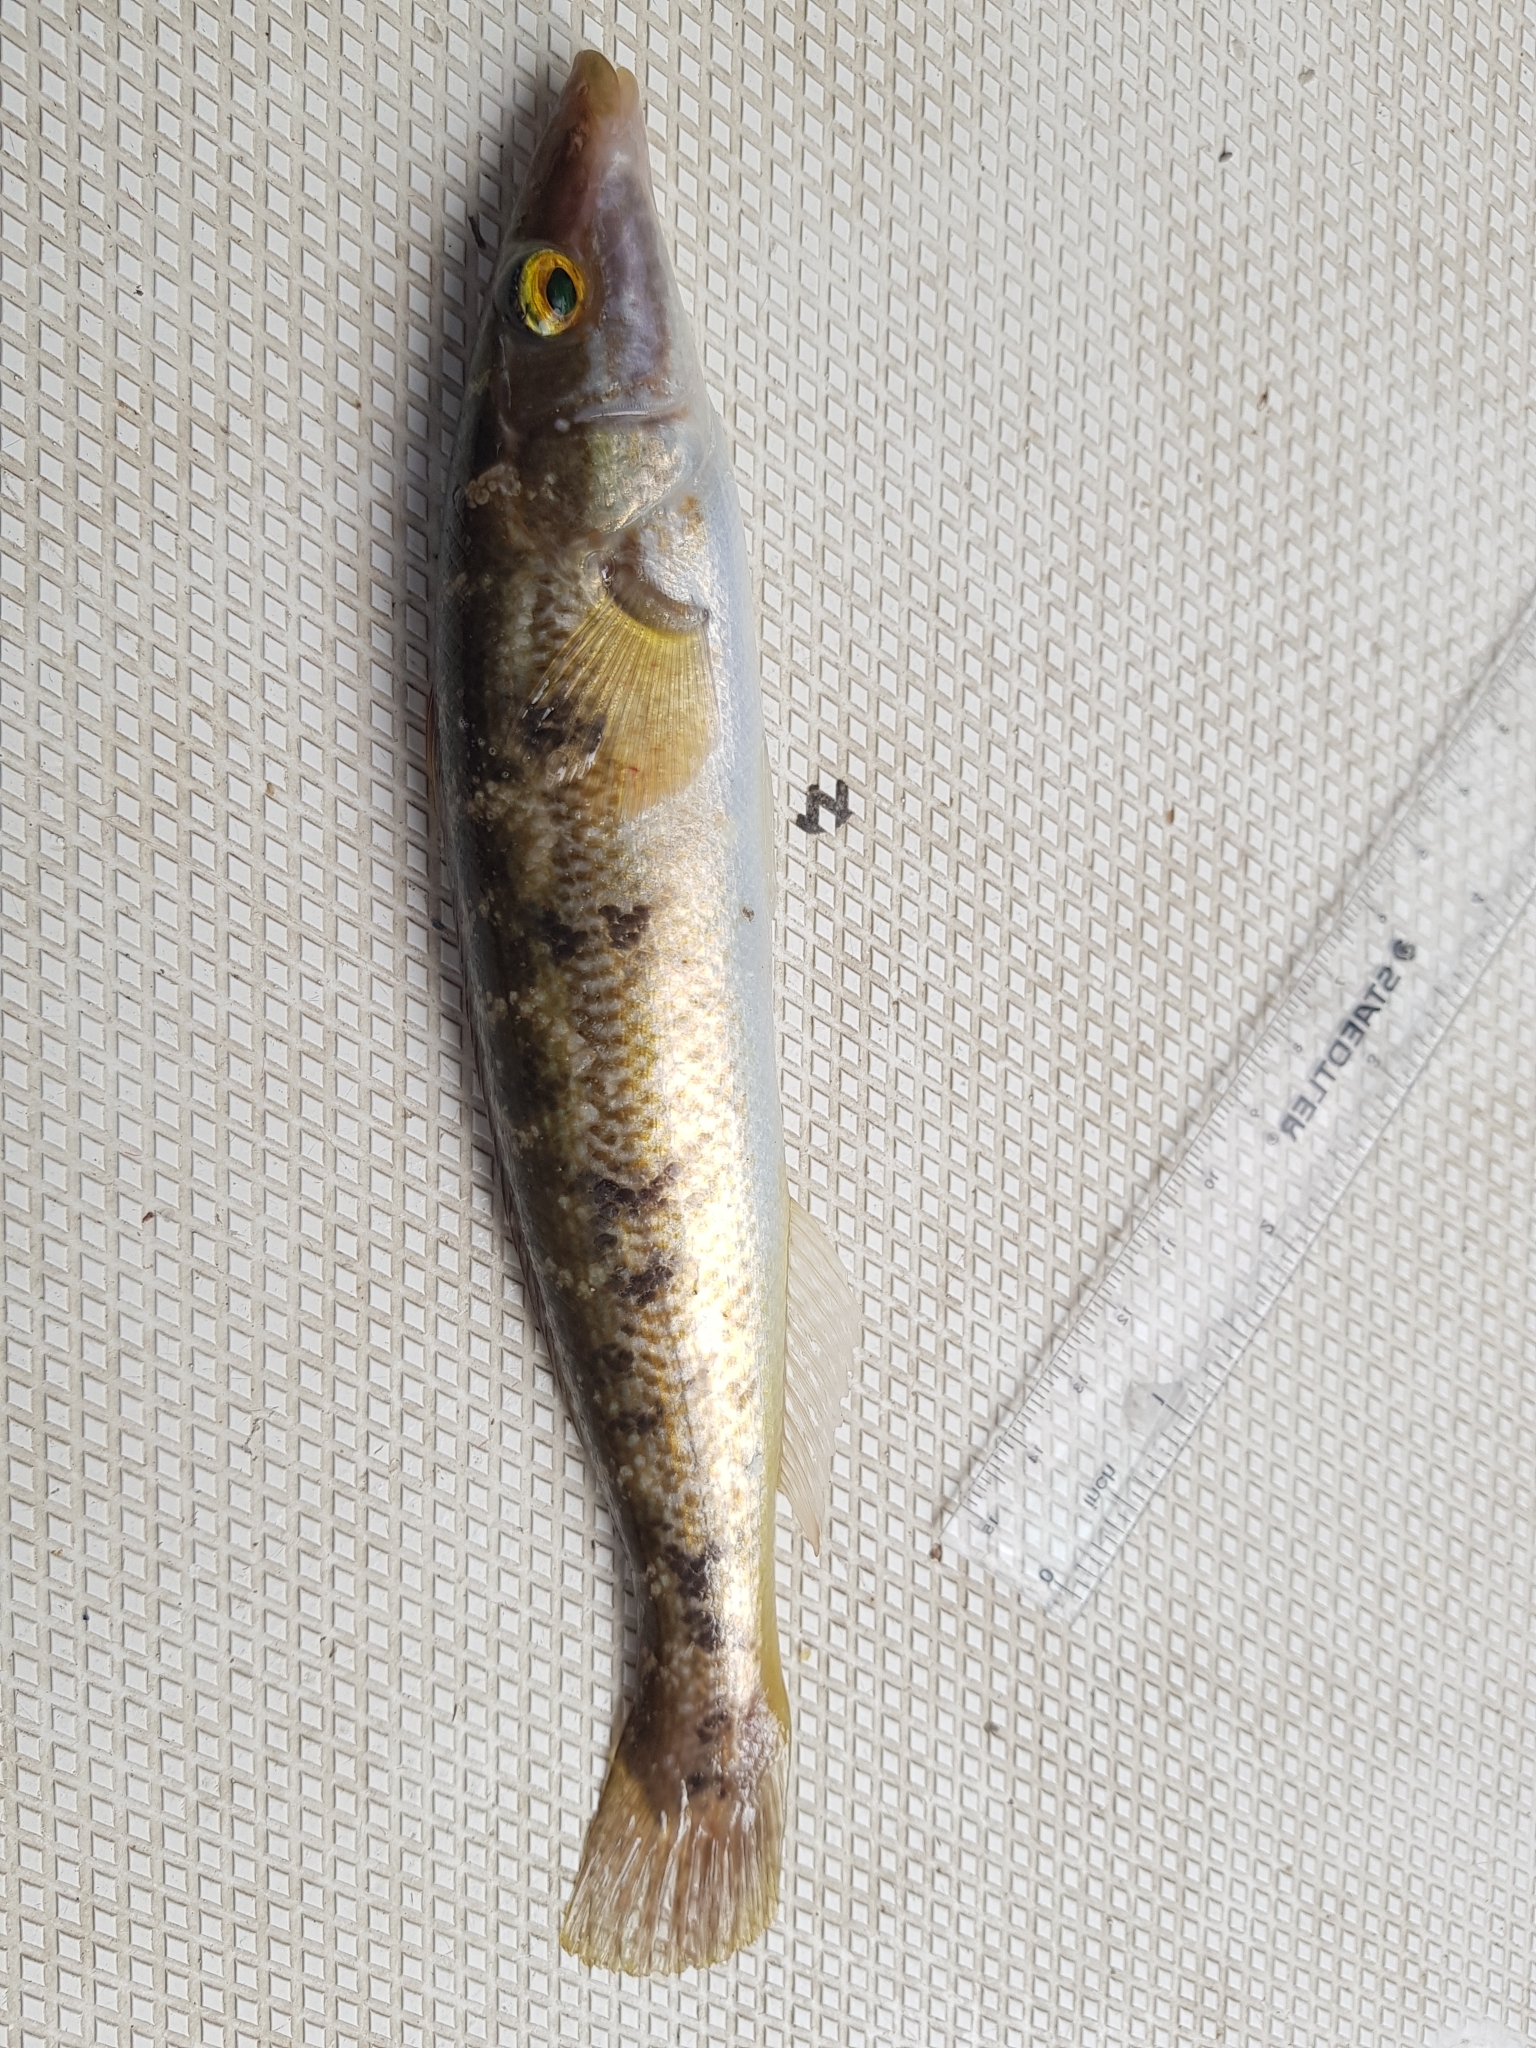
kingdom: Animalia
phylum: Chordata
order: Perciformes
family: Odacidae
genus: Haletta
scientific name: Haletta semifasciata
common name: Blue rock whiting
